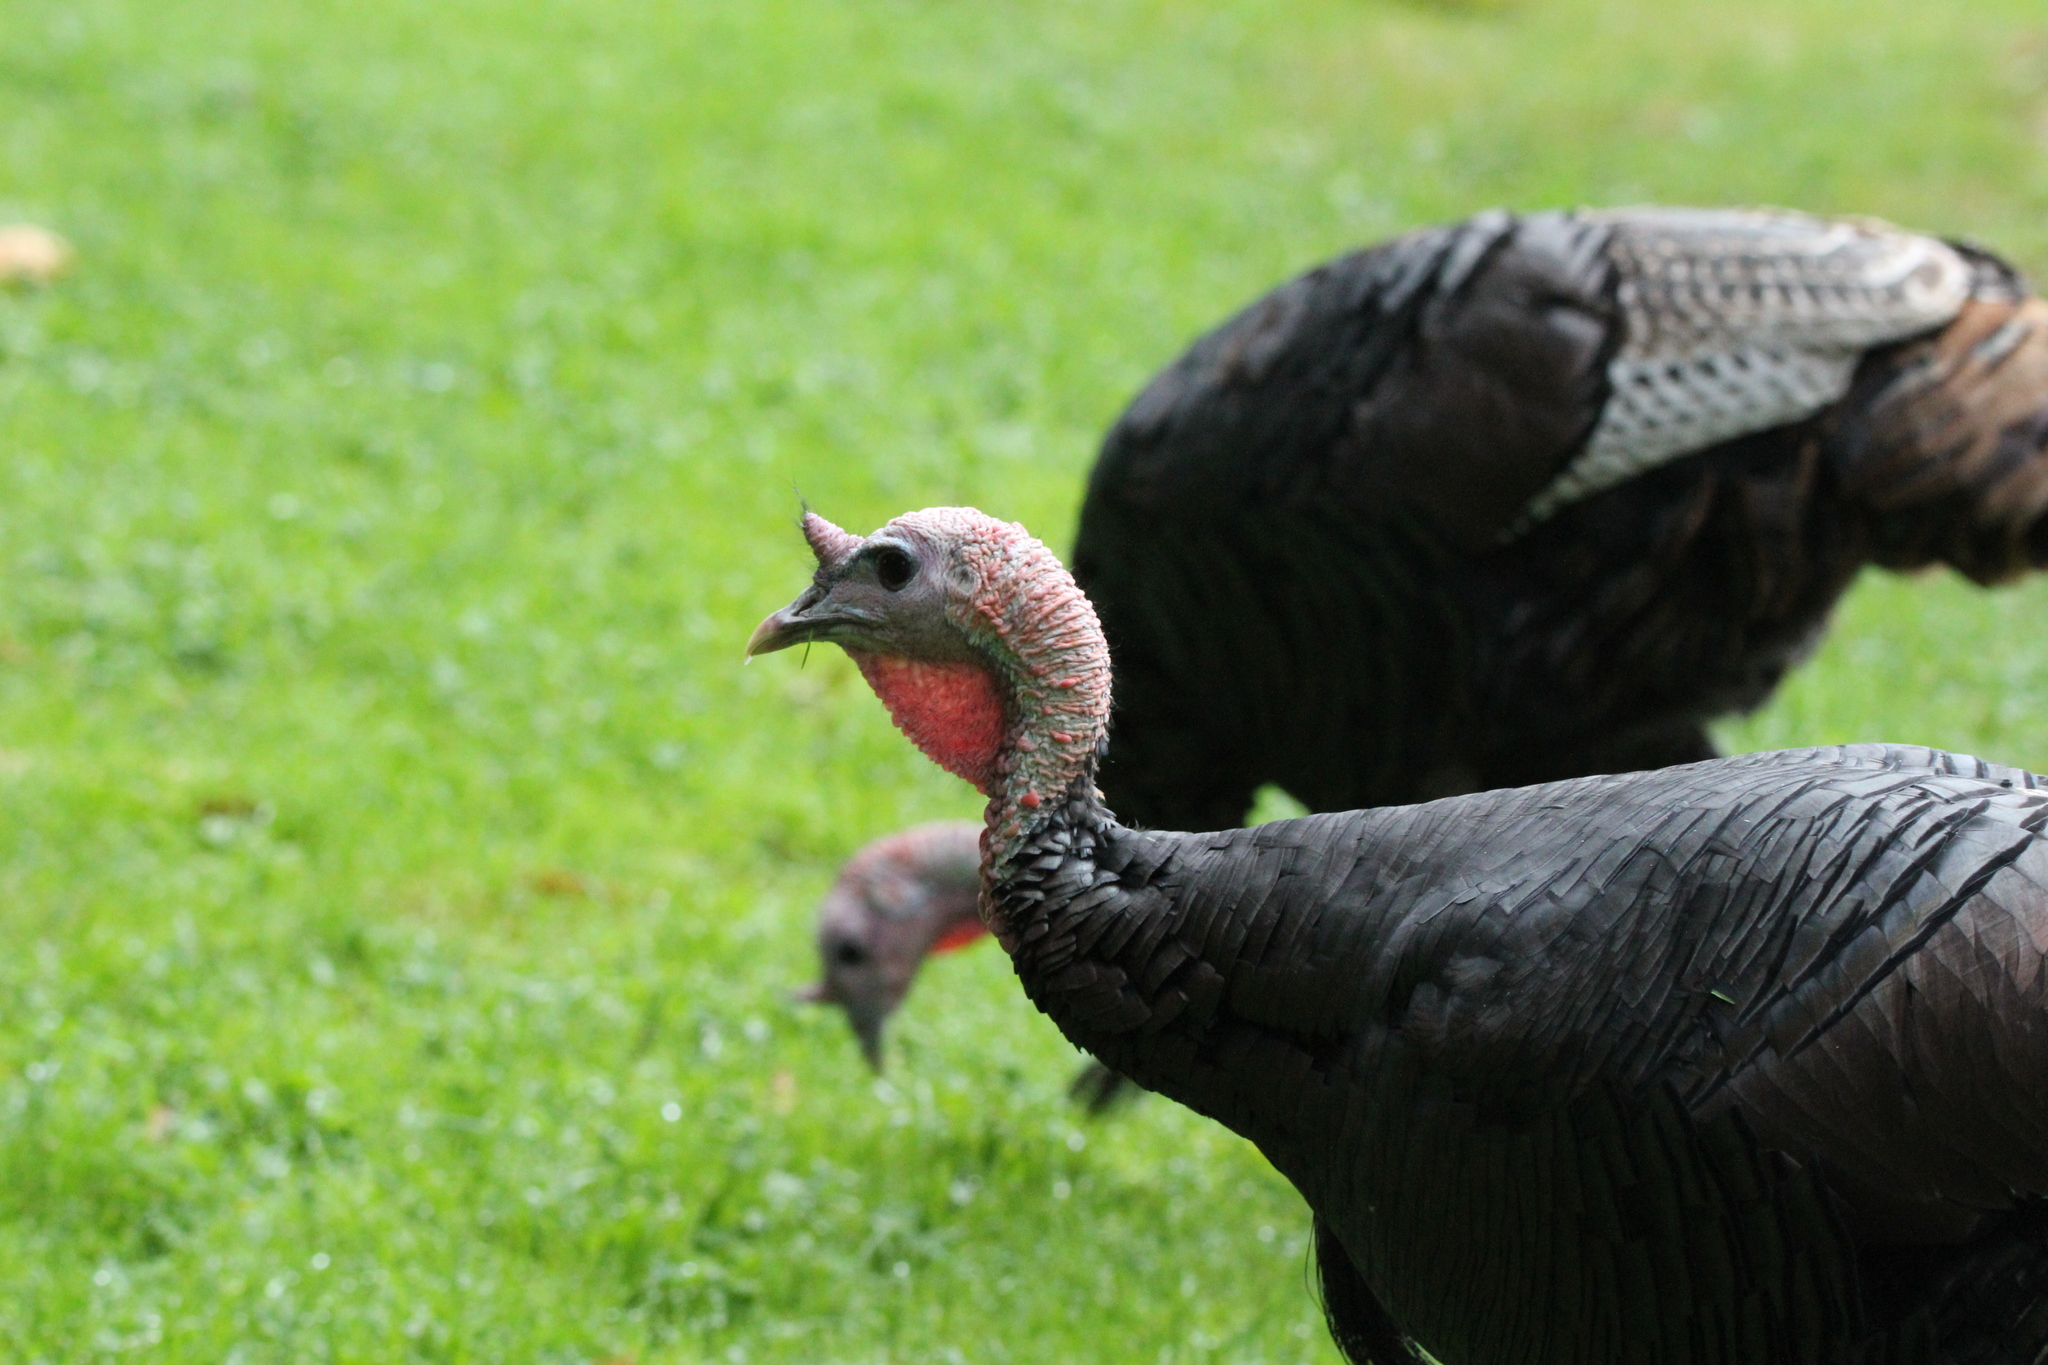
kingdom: Animalia
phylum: Chordata
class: Aves
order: Galliformes
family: Phasianidae
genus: Meleagris
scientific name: Meleagris gallopavo
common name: Wild turkey
